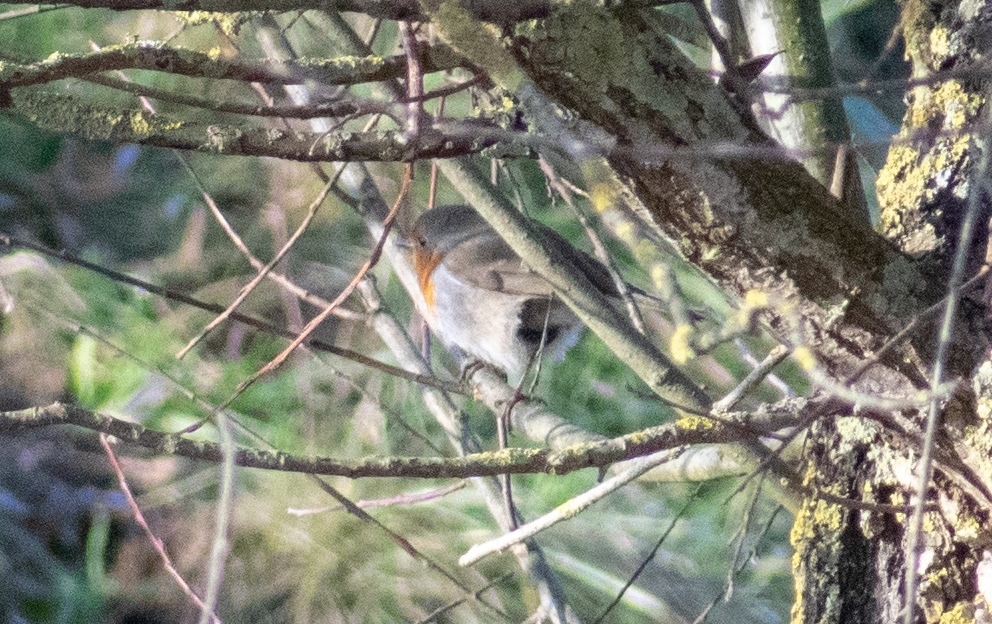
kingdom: Animalia
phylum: Chordata
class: Aves
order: Passeriformes
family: Muscicapidae
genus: Erithacus
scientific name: Erithacus rubecula
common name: European robin
